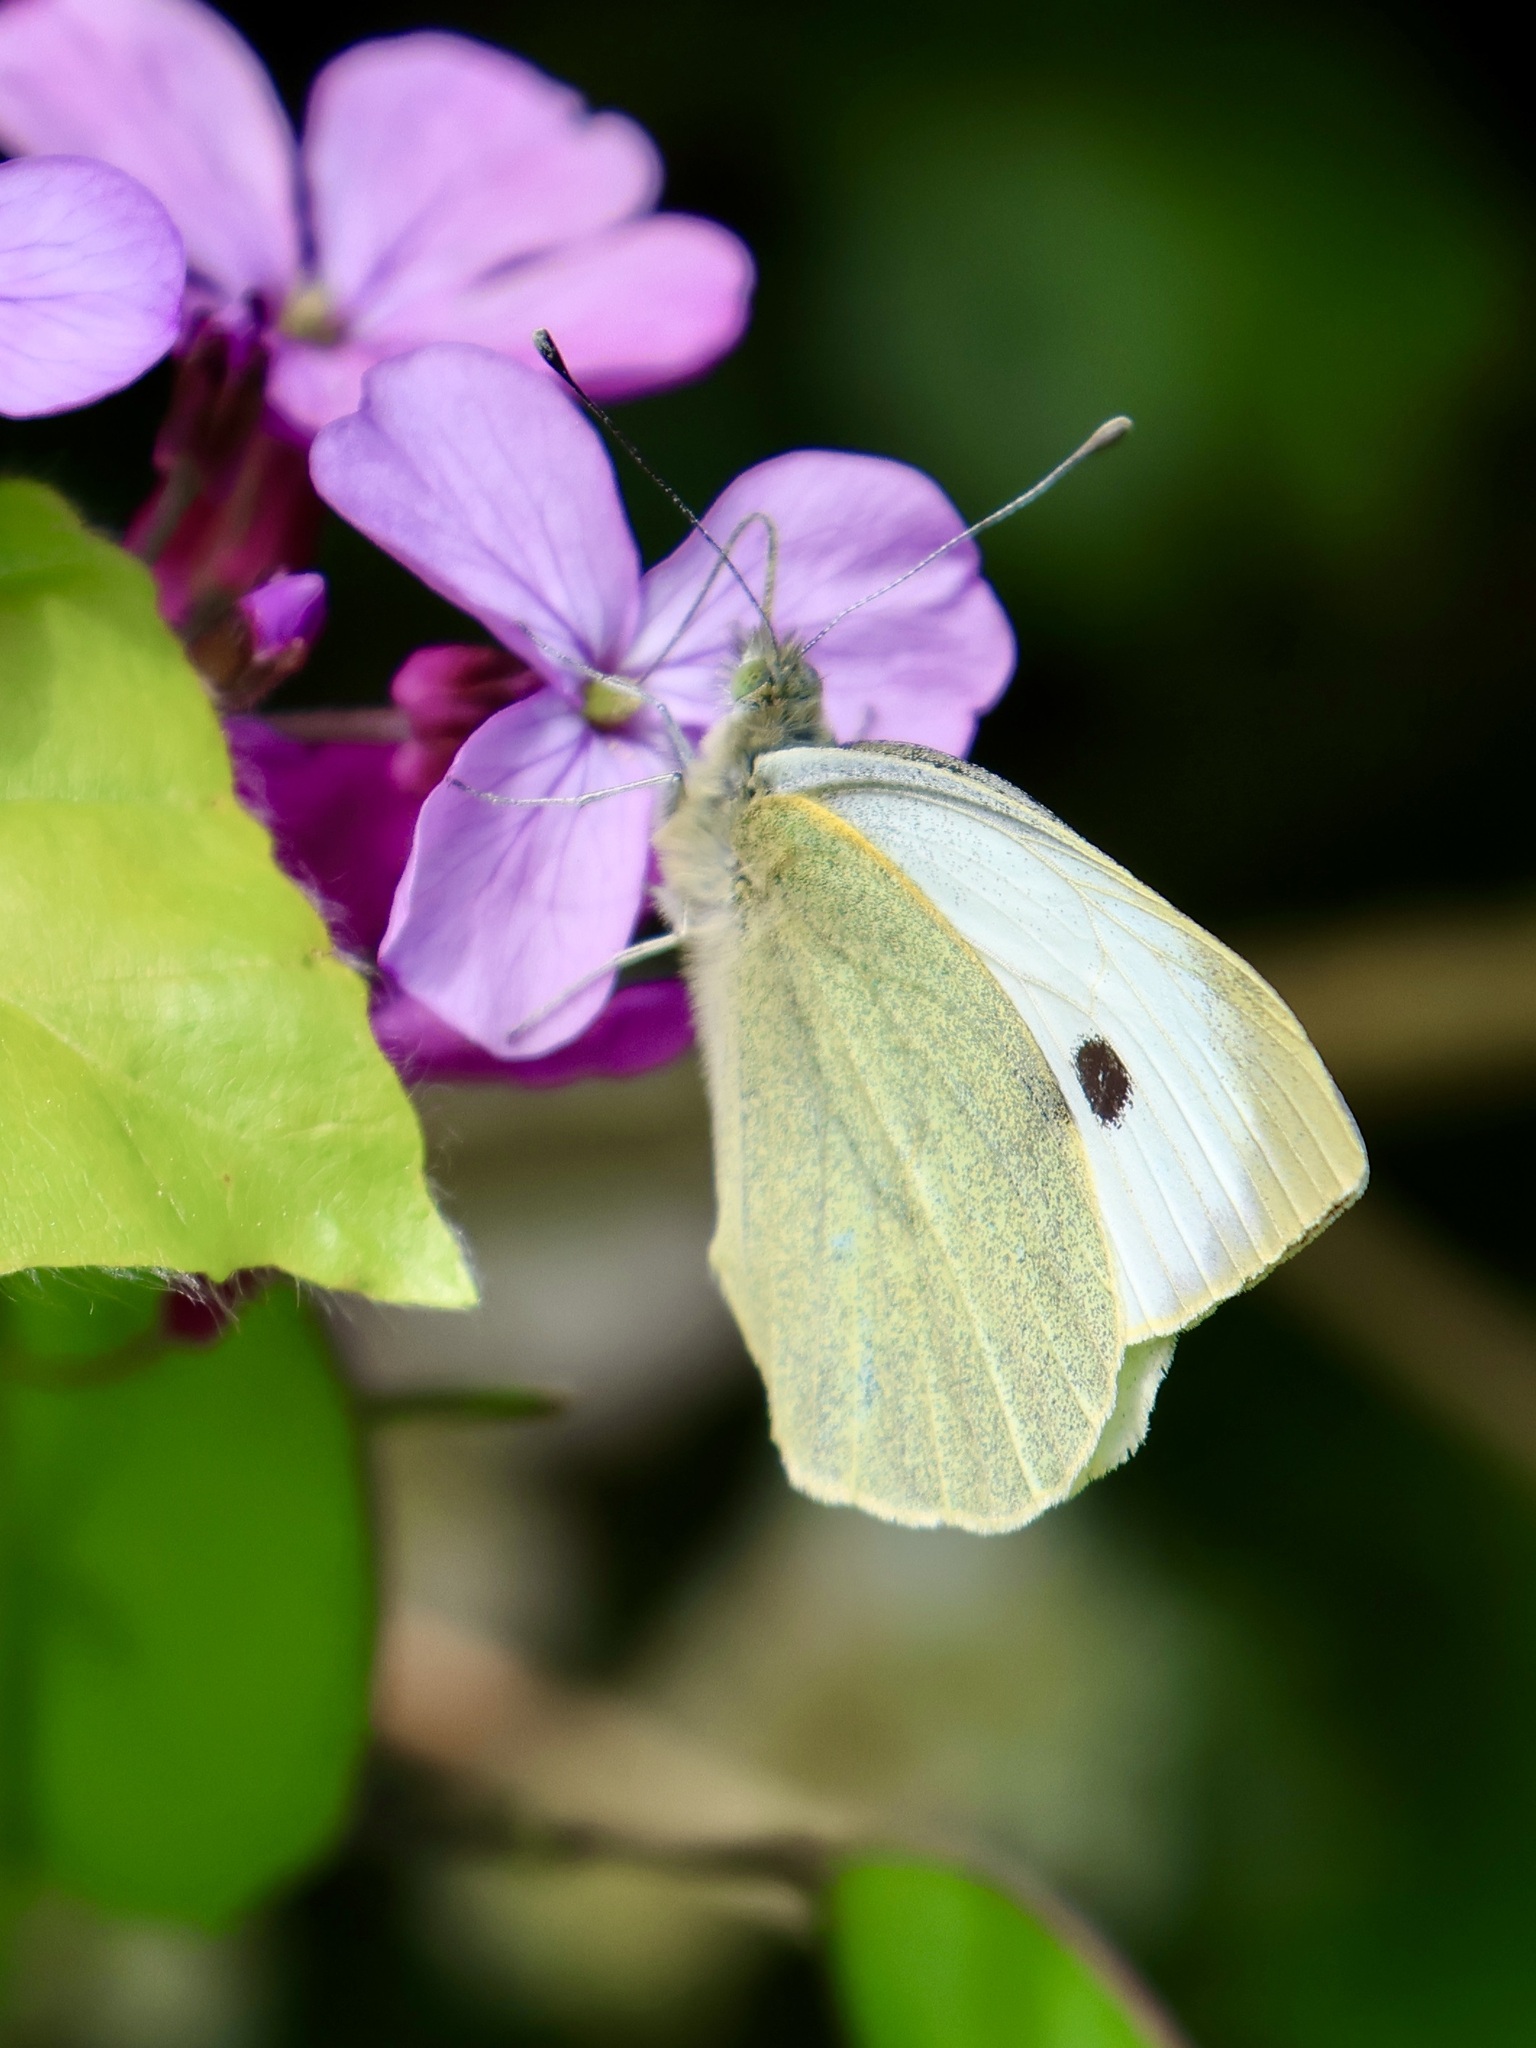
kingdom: Animalia
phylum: Arthropoda
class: Insecta
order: Lepidoptera
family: Pieridae
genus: Pieris
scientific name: Pieris brassicae
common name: Large white
